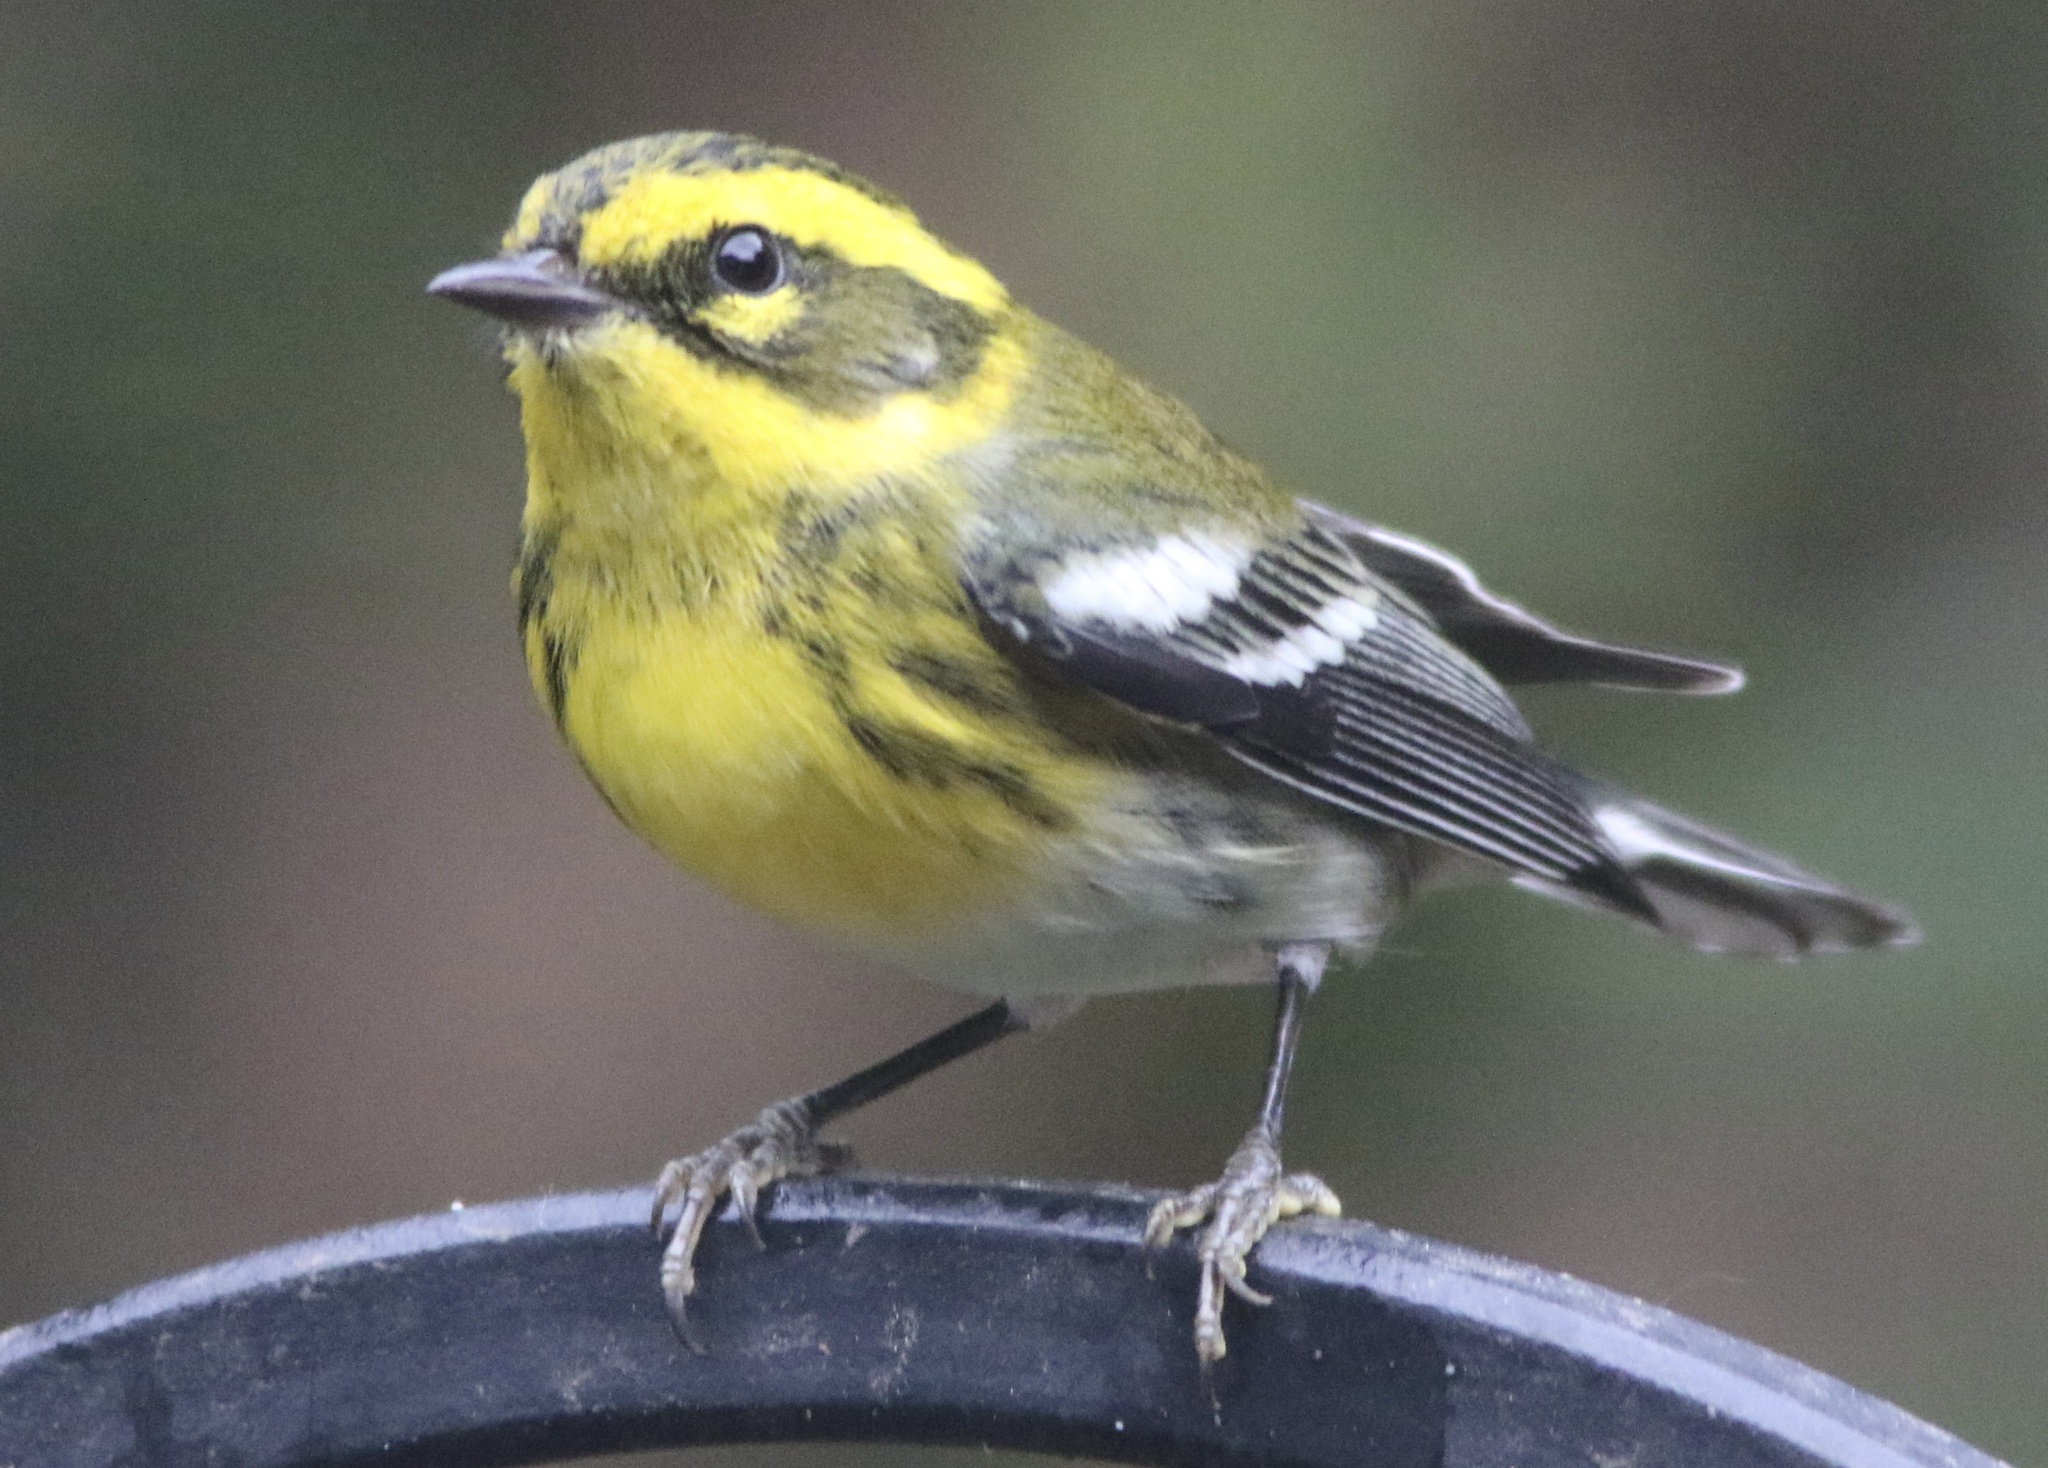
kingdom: Animalia
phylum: Chordata
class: Aves
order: Passeriformes
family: Parulidae
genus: Setophaga
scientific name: Setophaga townsendi
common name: Townsend's warbler
